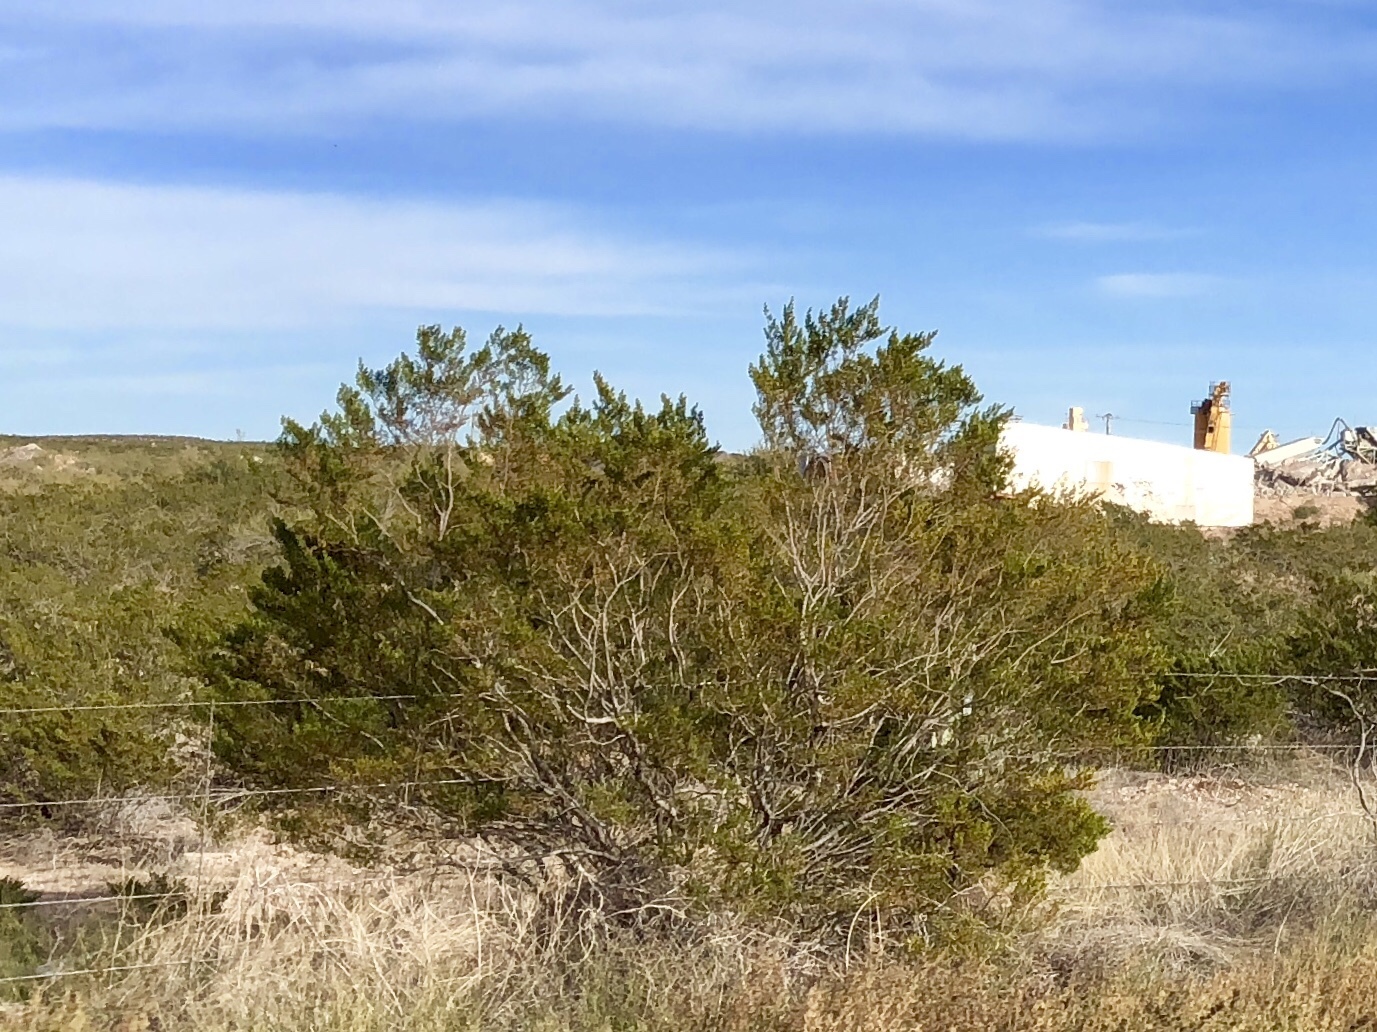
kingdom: Plantae
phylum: Tracheophyta
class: Magnoliopsida
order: Zygophyllales
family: Zygophyllaceae
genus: Larrea
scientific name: Larrea tridentata
